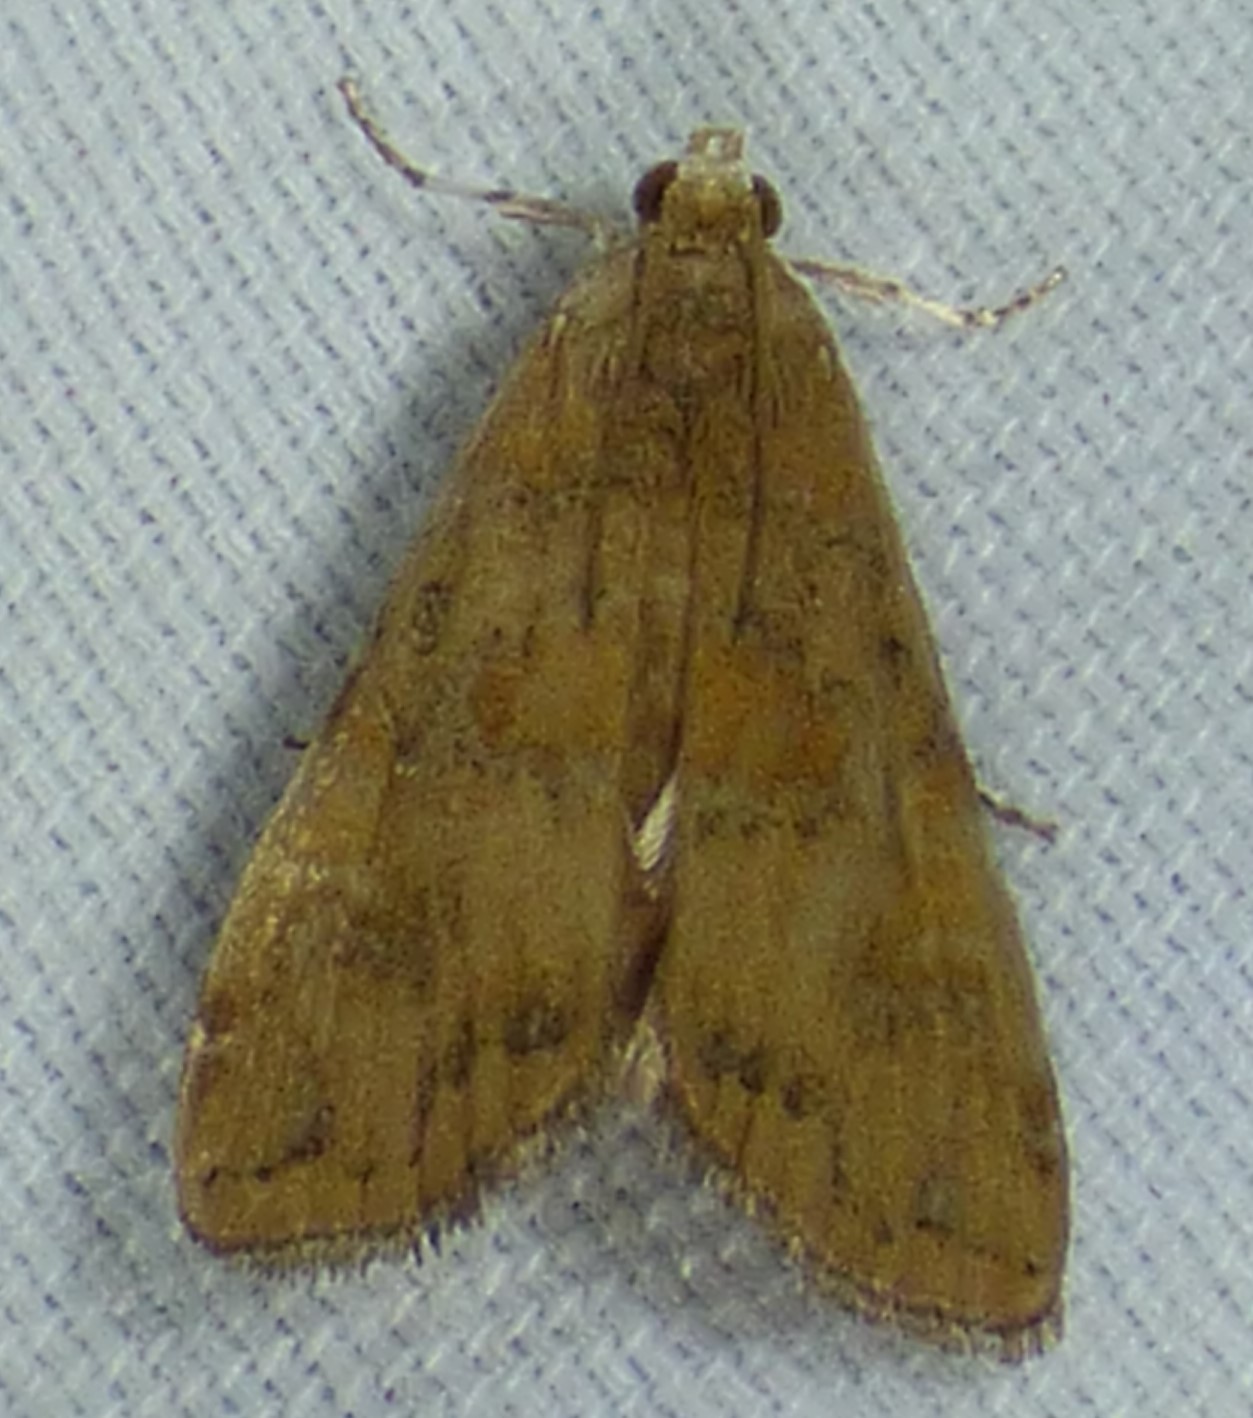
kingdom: Animalia
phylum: Arthropoda
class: Insecta
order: Lepidoptera
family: Crambidae
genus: Elophila
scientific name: Elophila gyralis
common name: Waterlily borer moth
